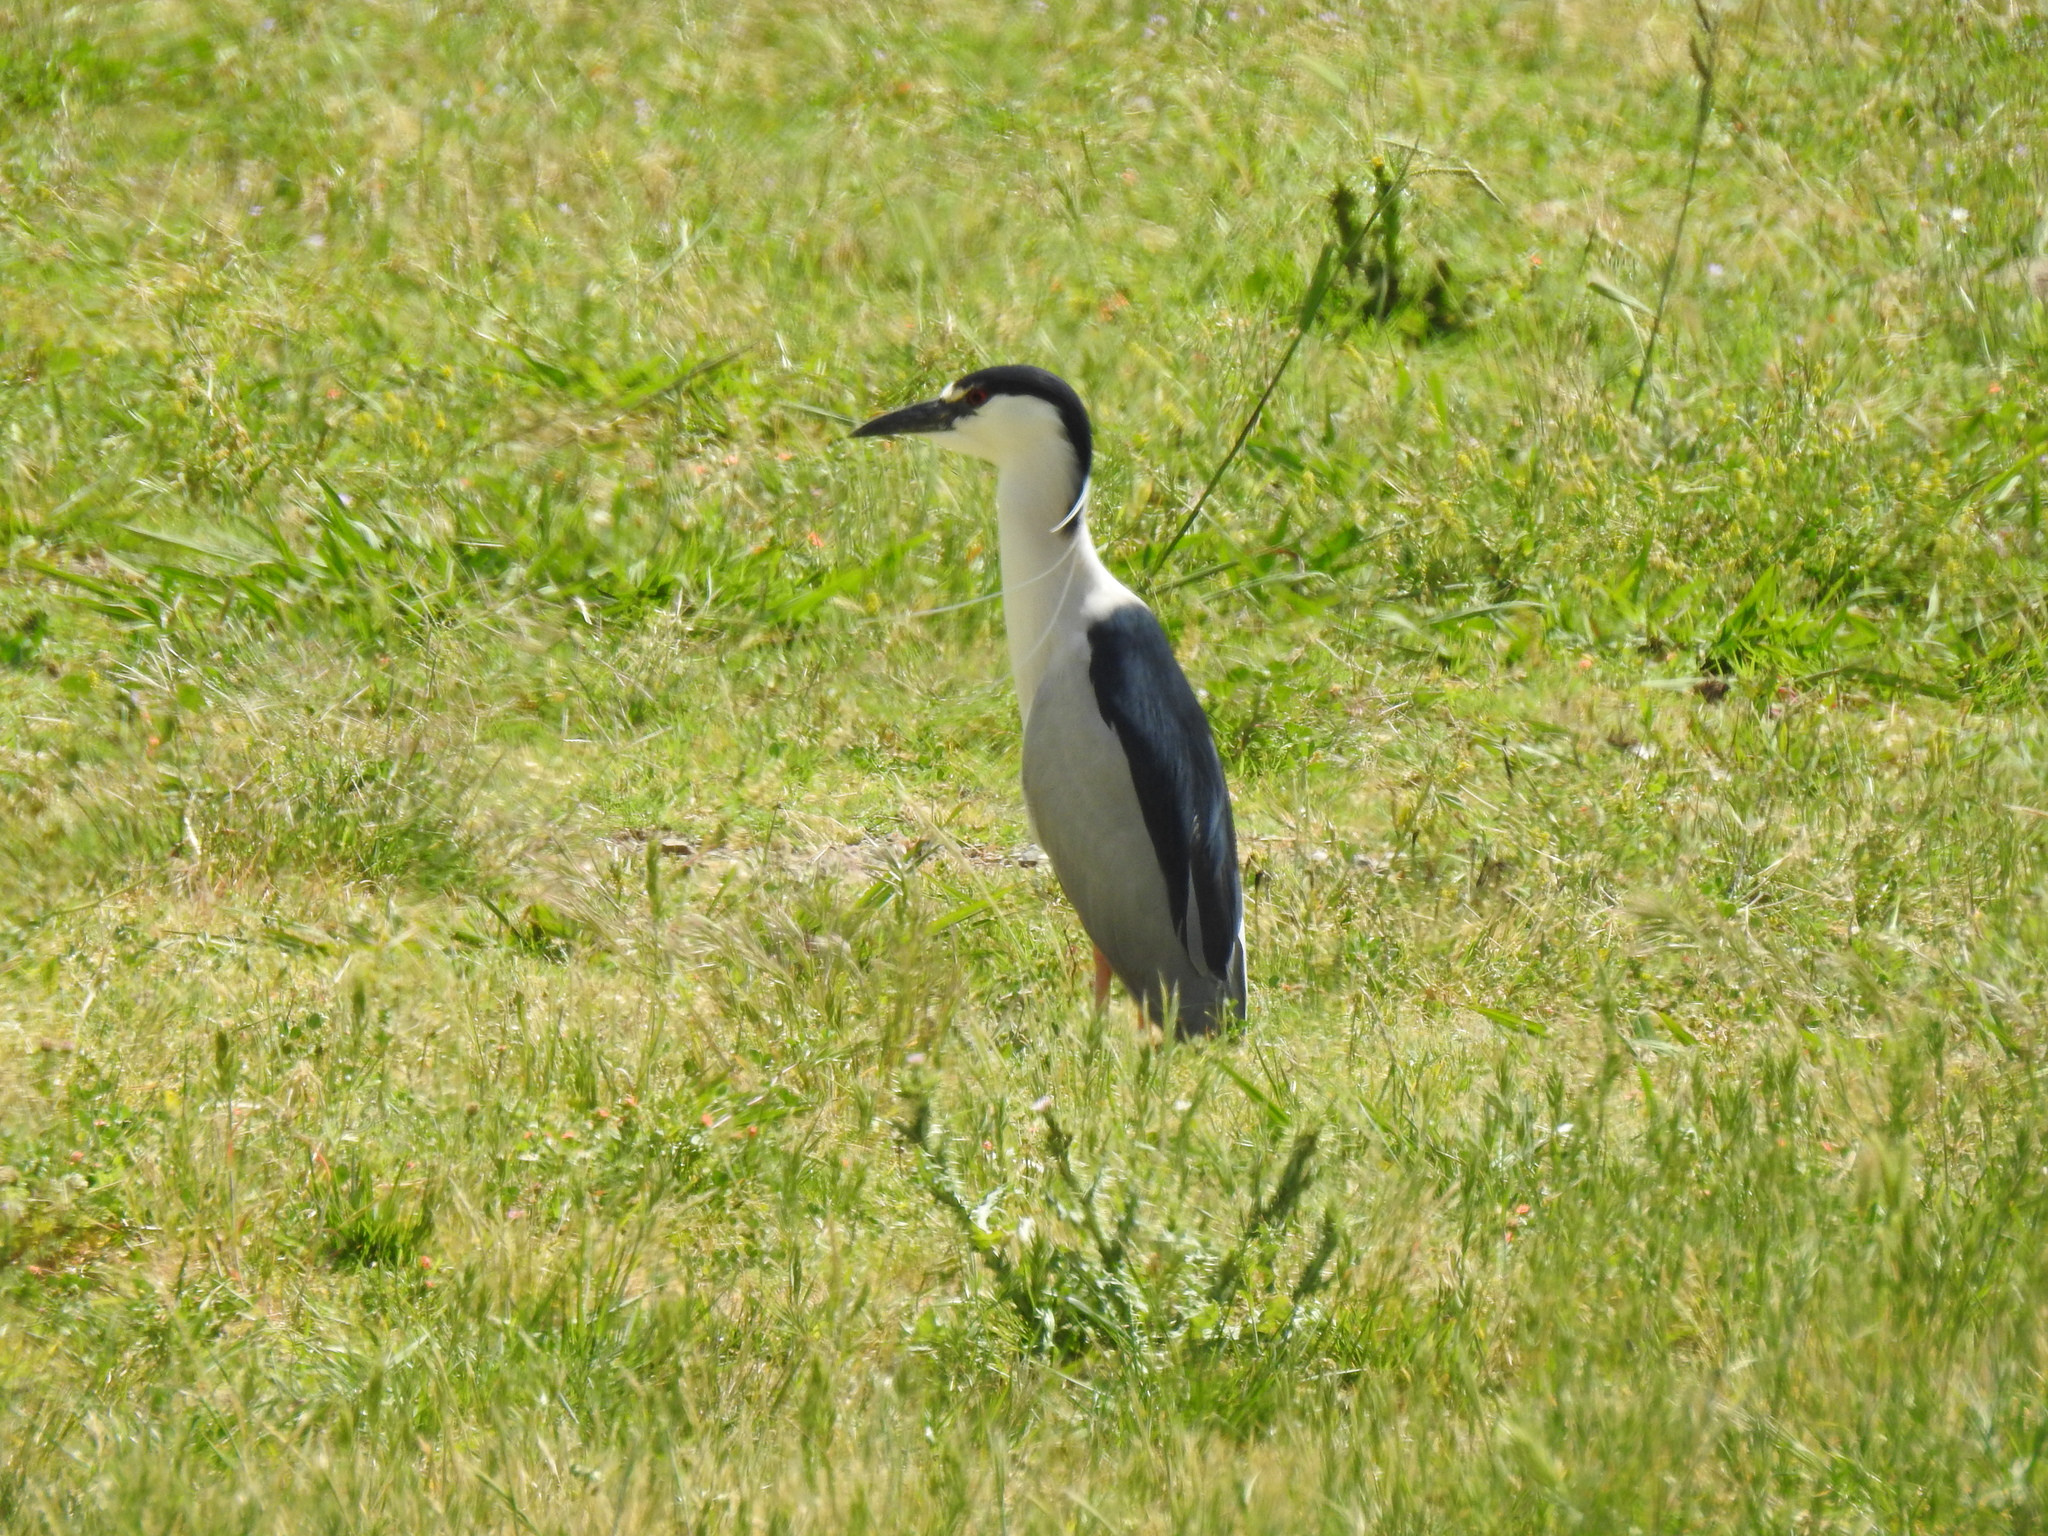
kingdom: Animalia
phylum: Chordata
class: Aves
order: Pelecaniformes
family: Ardeidae
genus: Nycticorax
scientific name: Nycticorax nycticorax
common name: Black-crowned night heron
